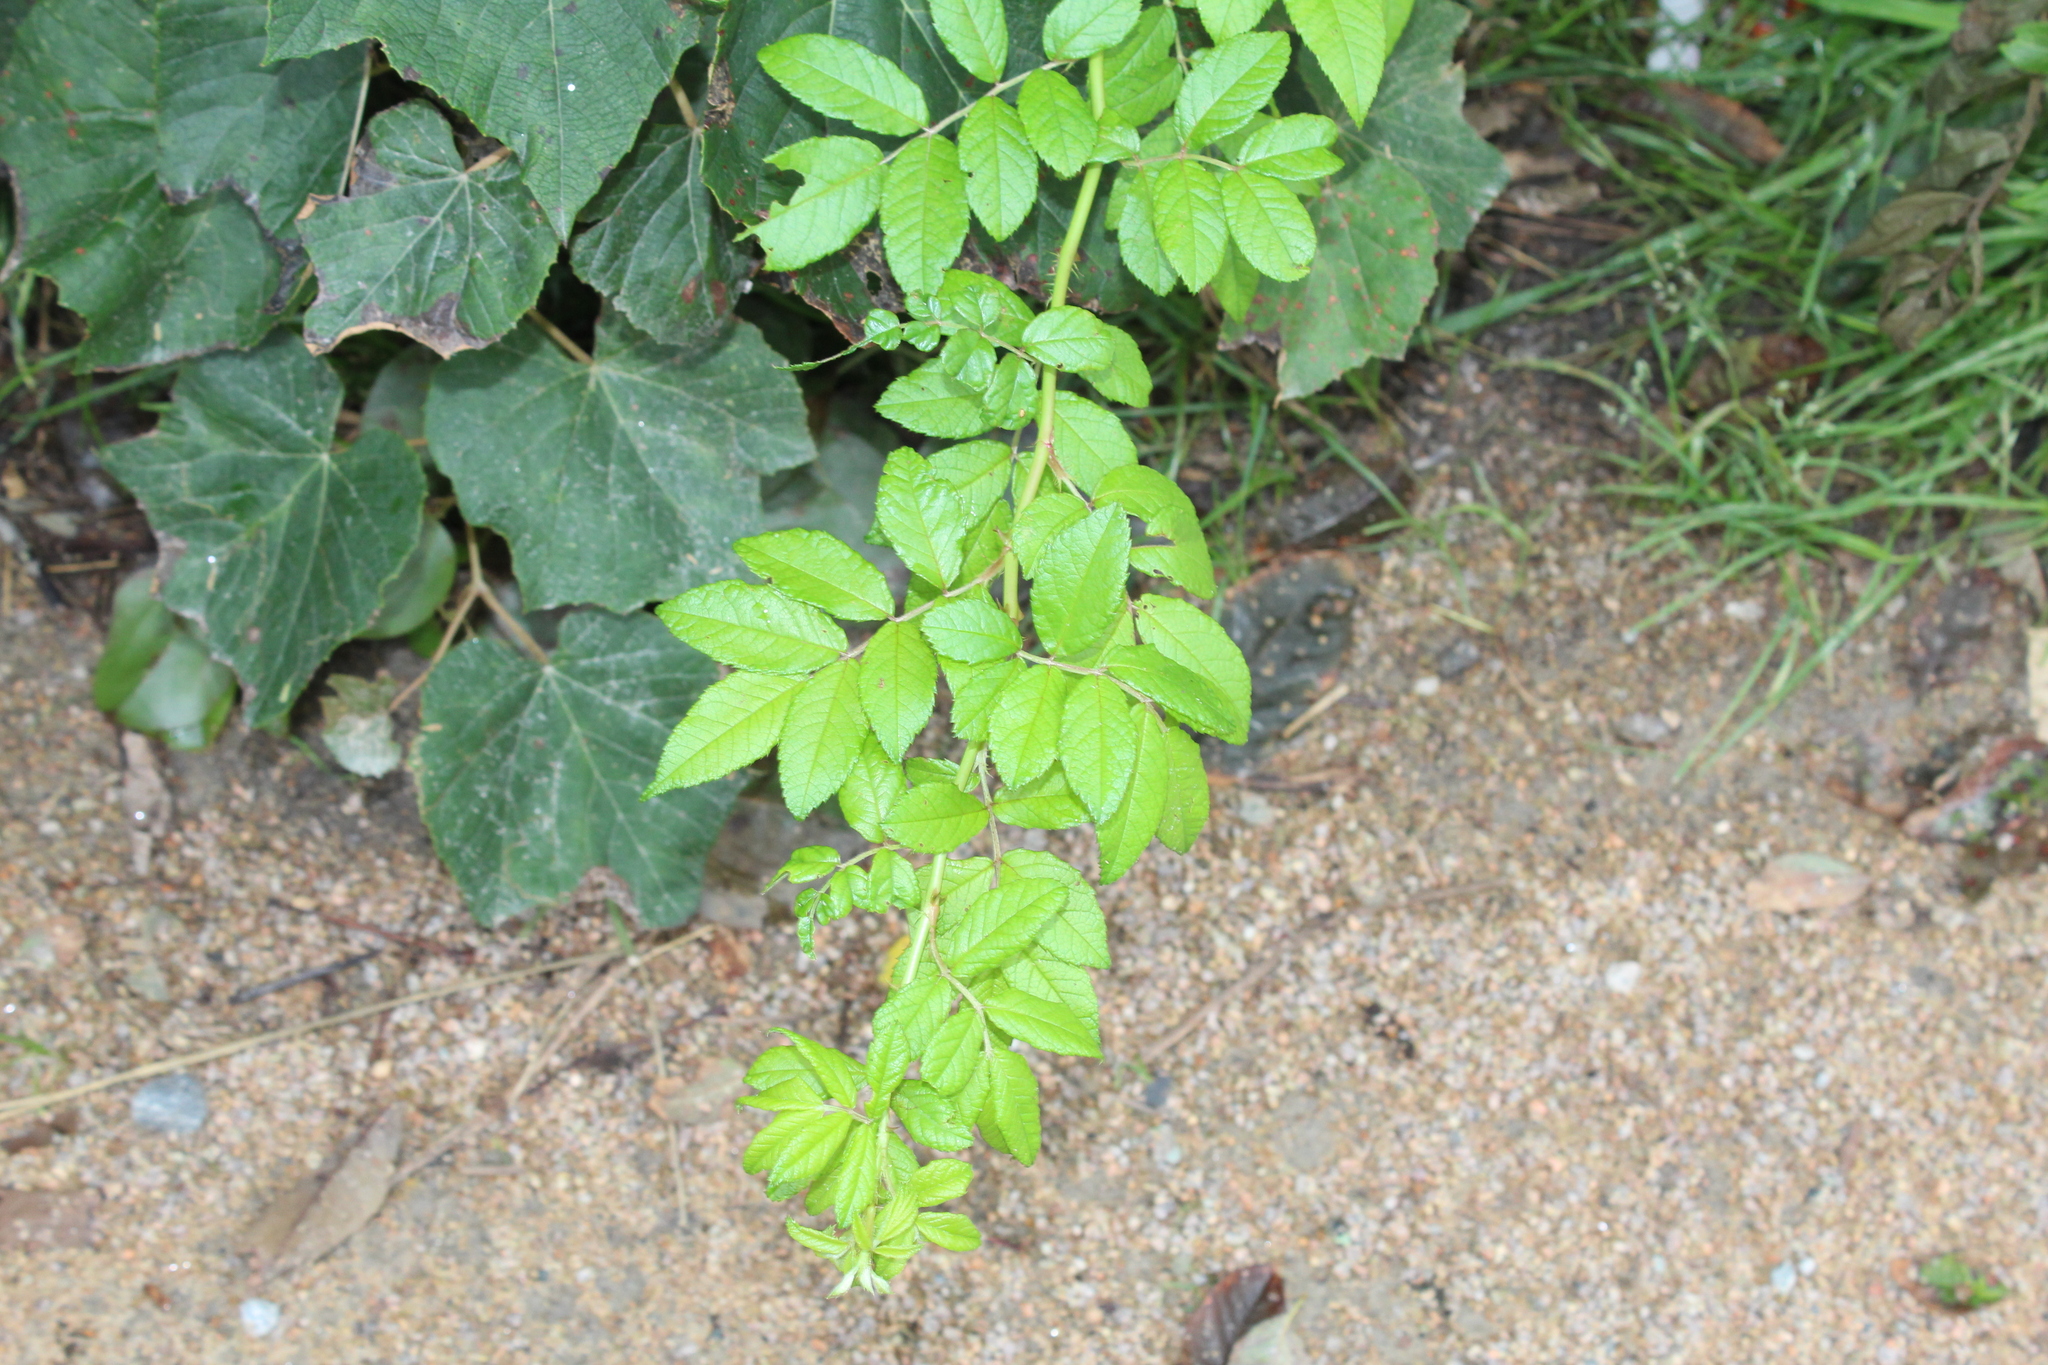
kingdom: Plantae
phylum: Tracheophyta
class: Magnoliopsida
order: Rosales
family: Rosaceae
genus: Rosa
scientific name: Rosa multiflora
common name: Multiflora rose
